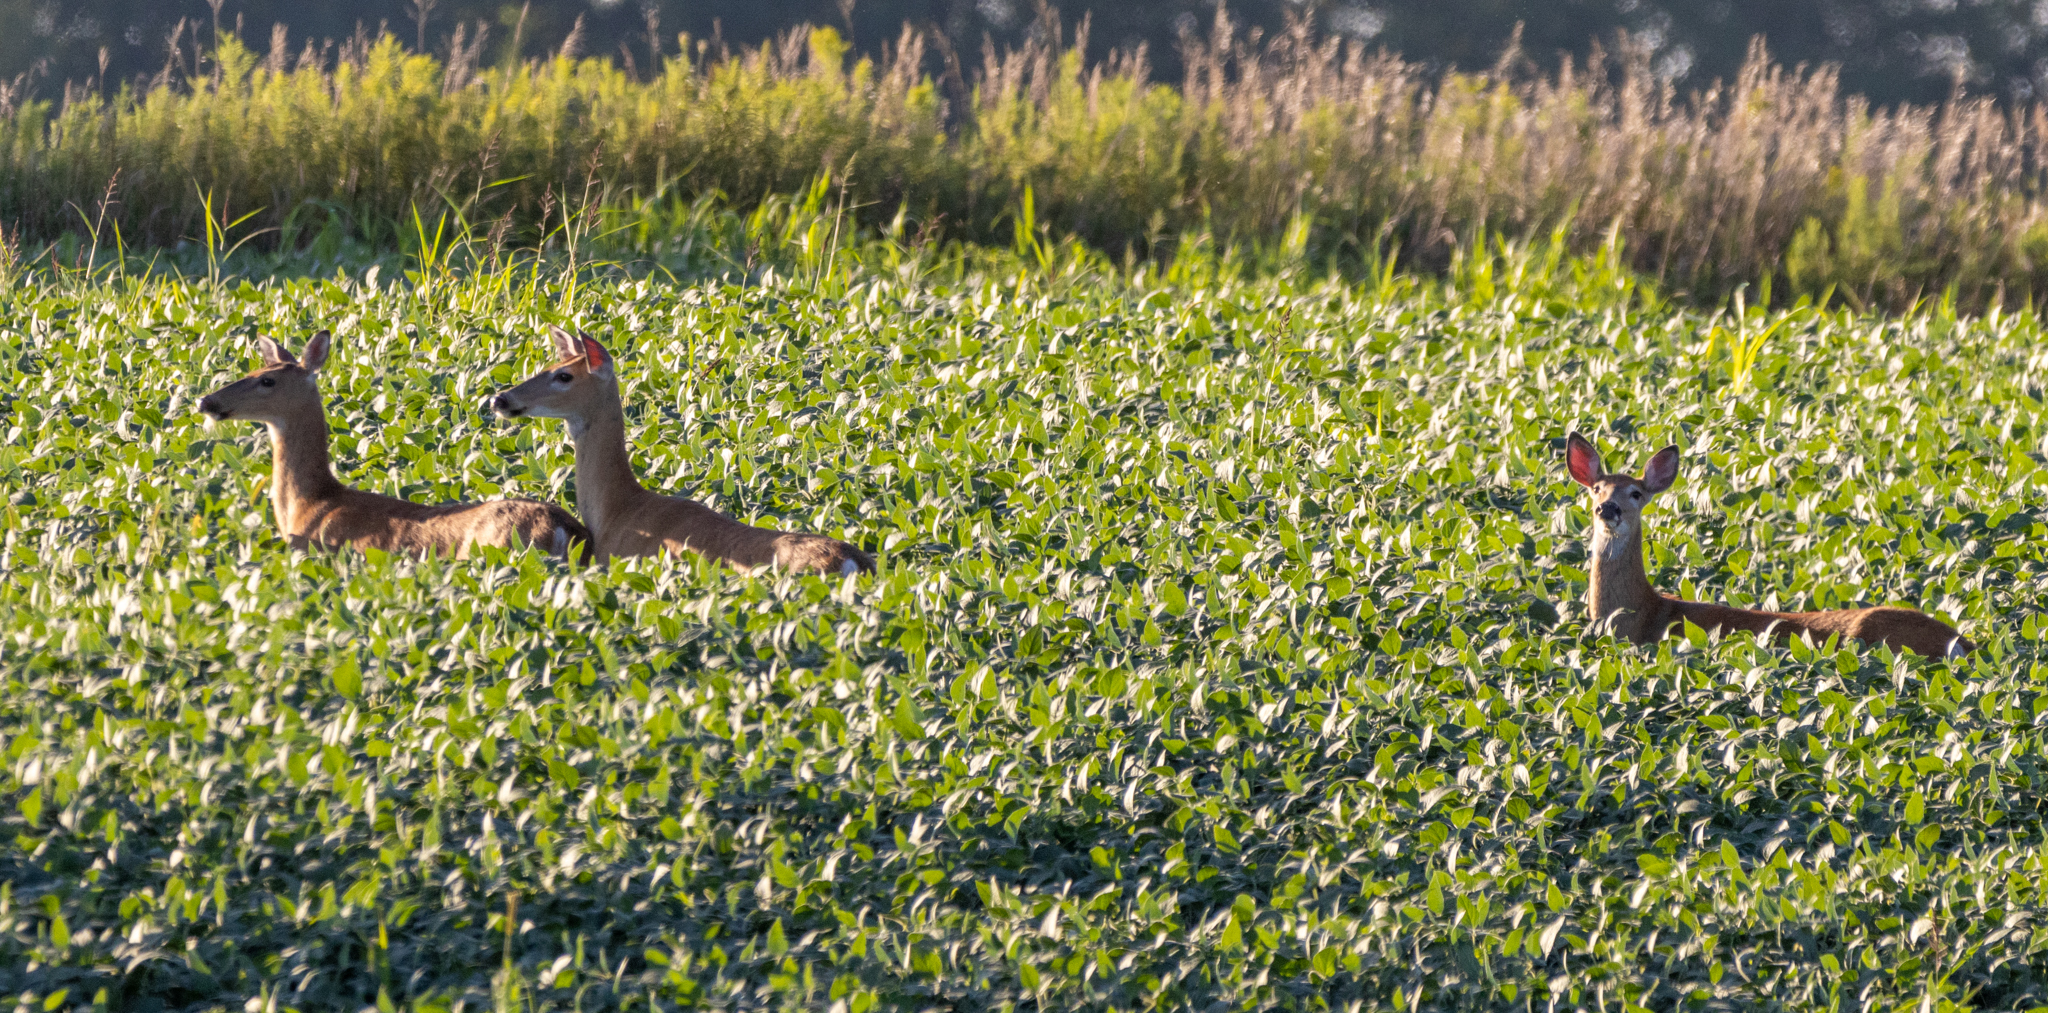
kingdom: Animalia
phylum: Chordata
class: Mammalia
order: Artiodactyla
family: Cervidae
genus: Odocoileus
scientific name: Odocoileus virginianus
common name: White-tailed deer
